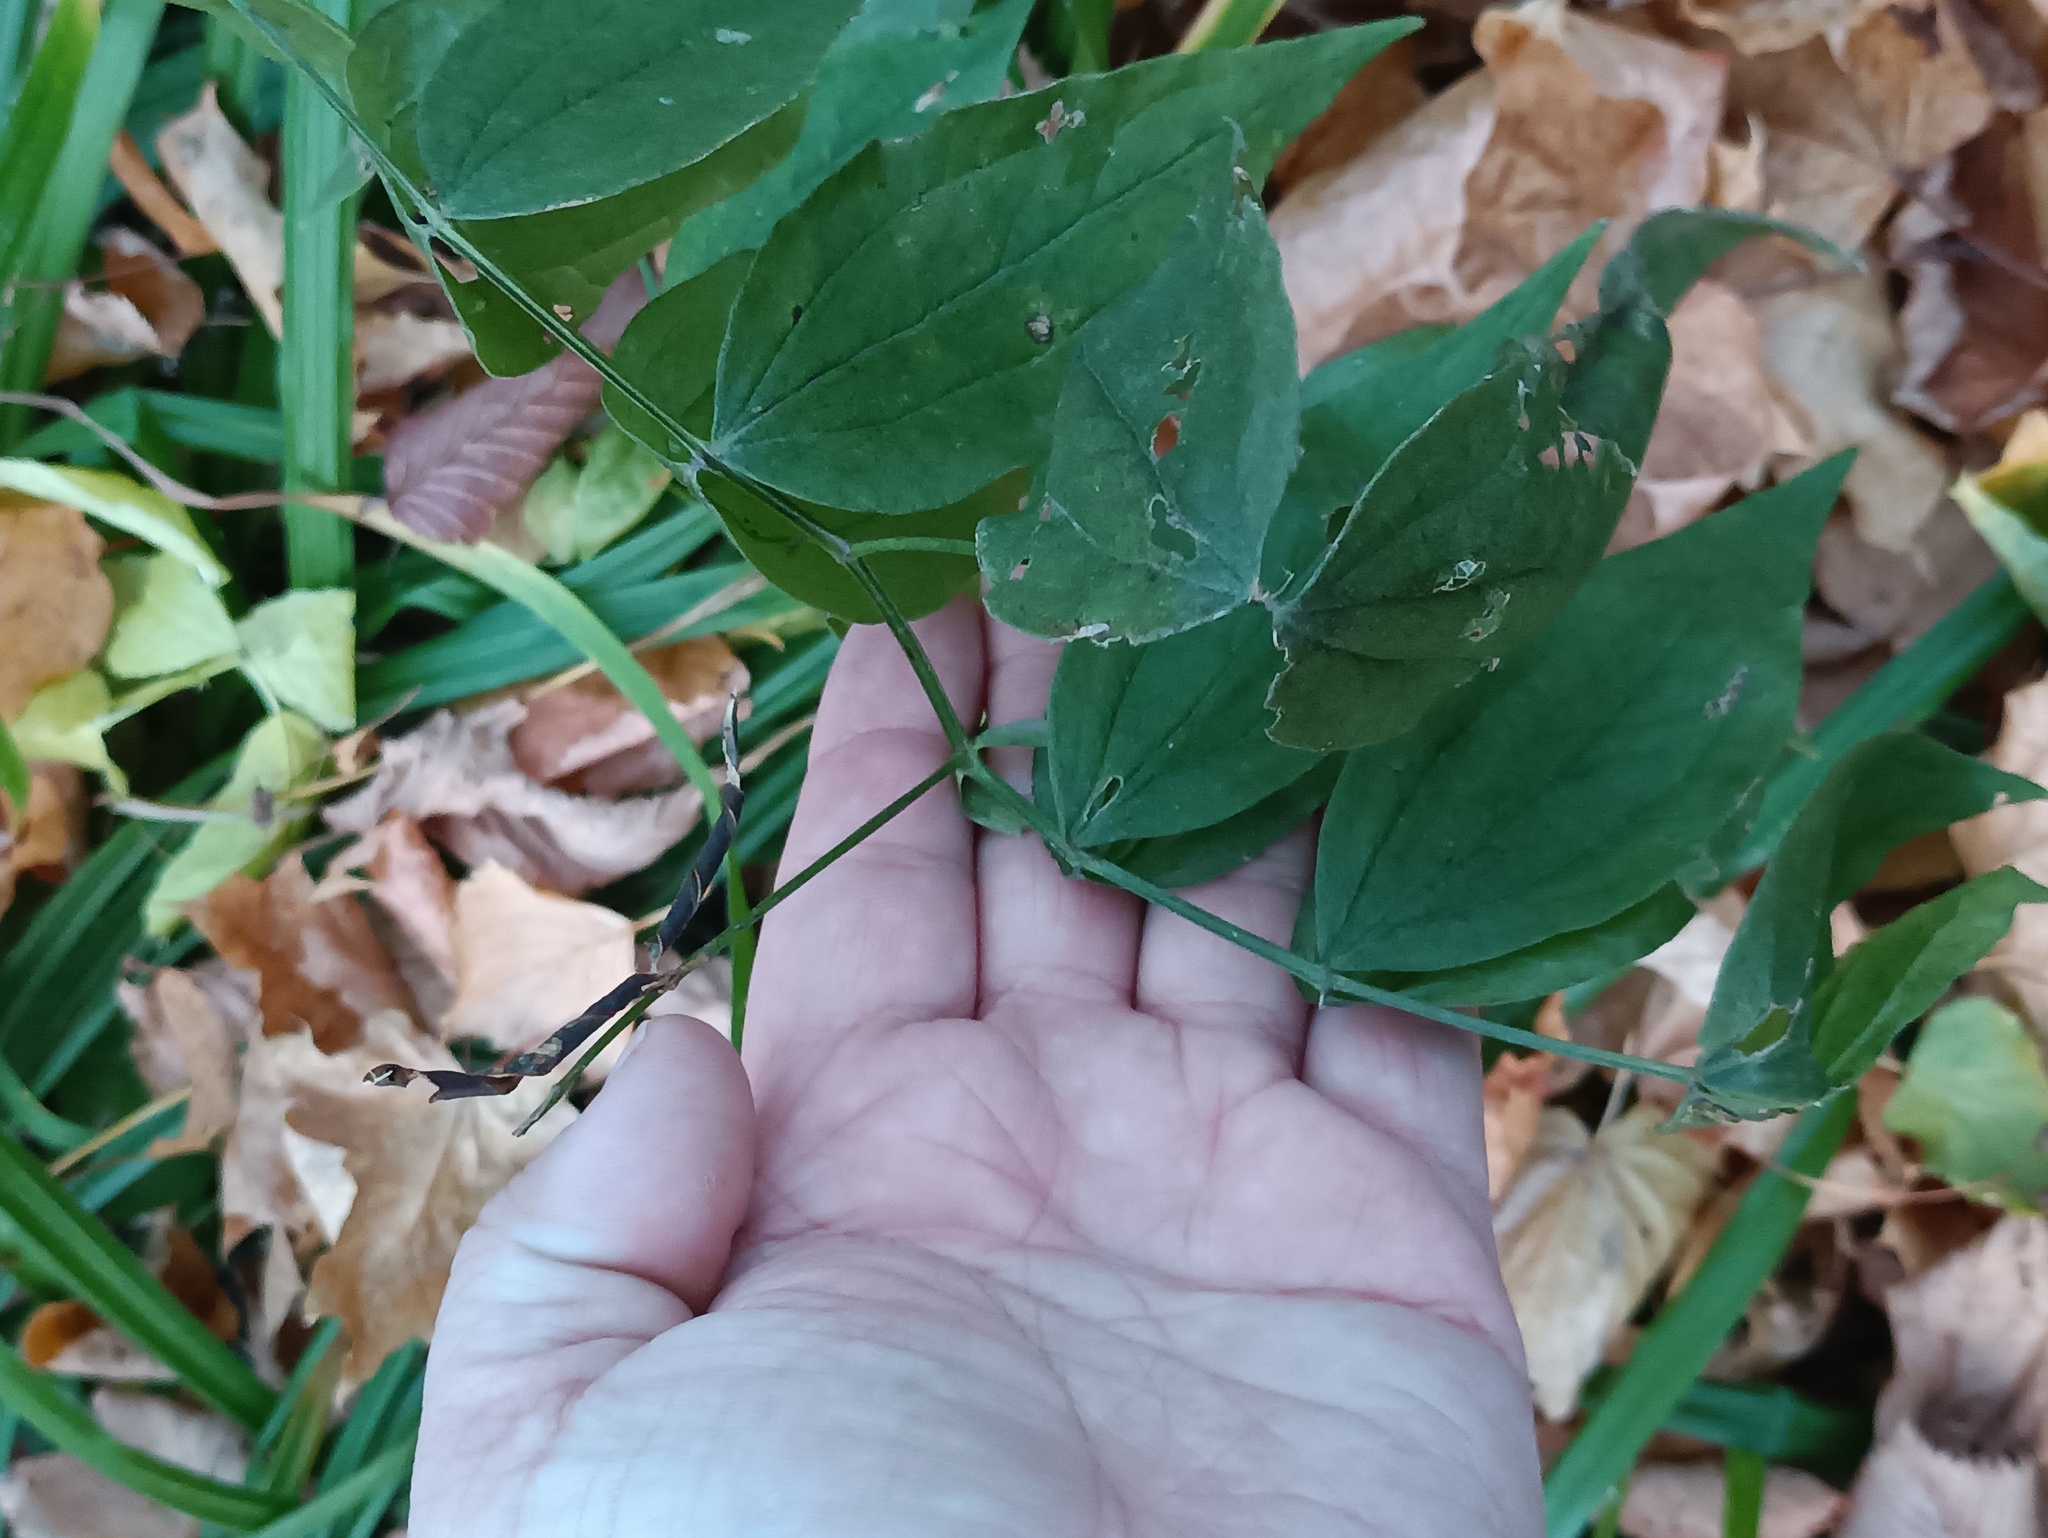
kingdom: Plantae
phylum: Tracheophyta
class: Magnoliopsida
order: Fabales
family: Fabaceae
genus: Lathyrus
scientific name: Lathyrus vernus
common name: Spring pea
